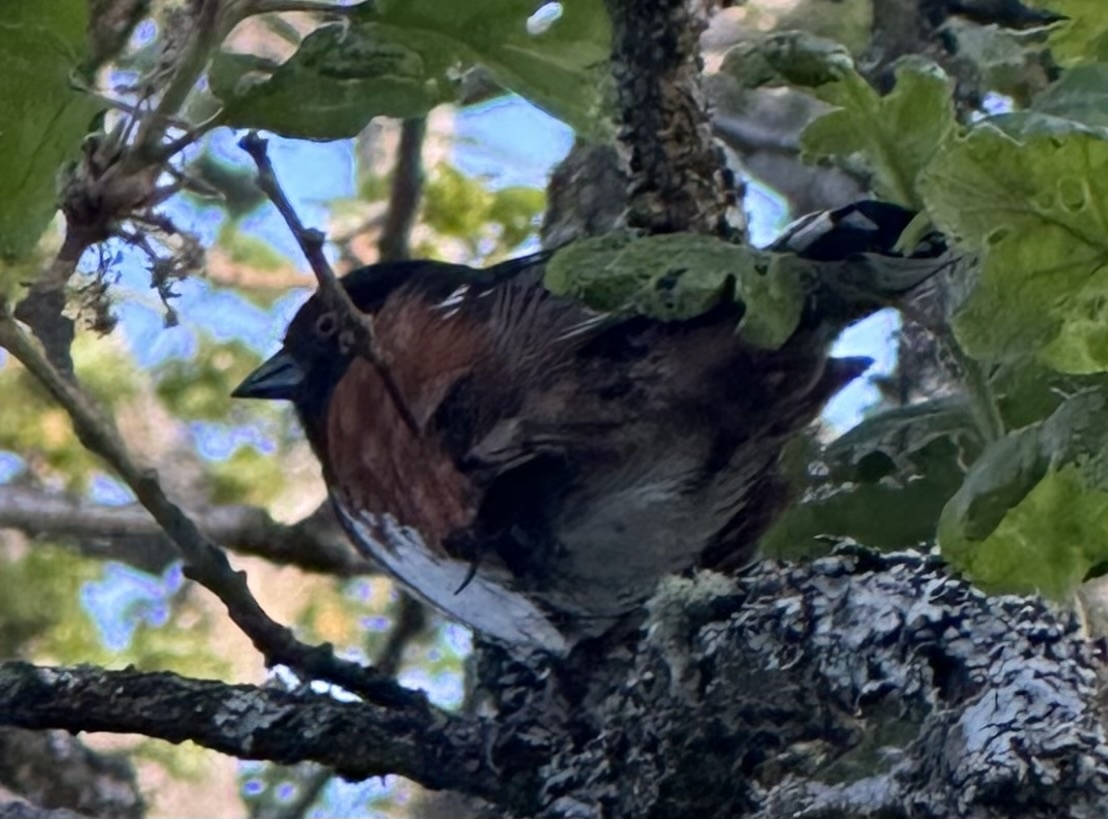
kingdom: Animalia
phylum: Chordata
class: Aves
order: Passeriformes
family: Passerellidae
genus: Pipilo
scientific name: Pipilo maculatus
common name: Spotted towhee
